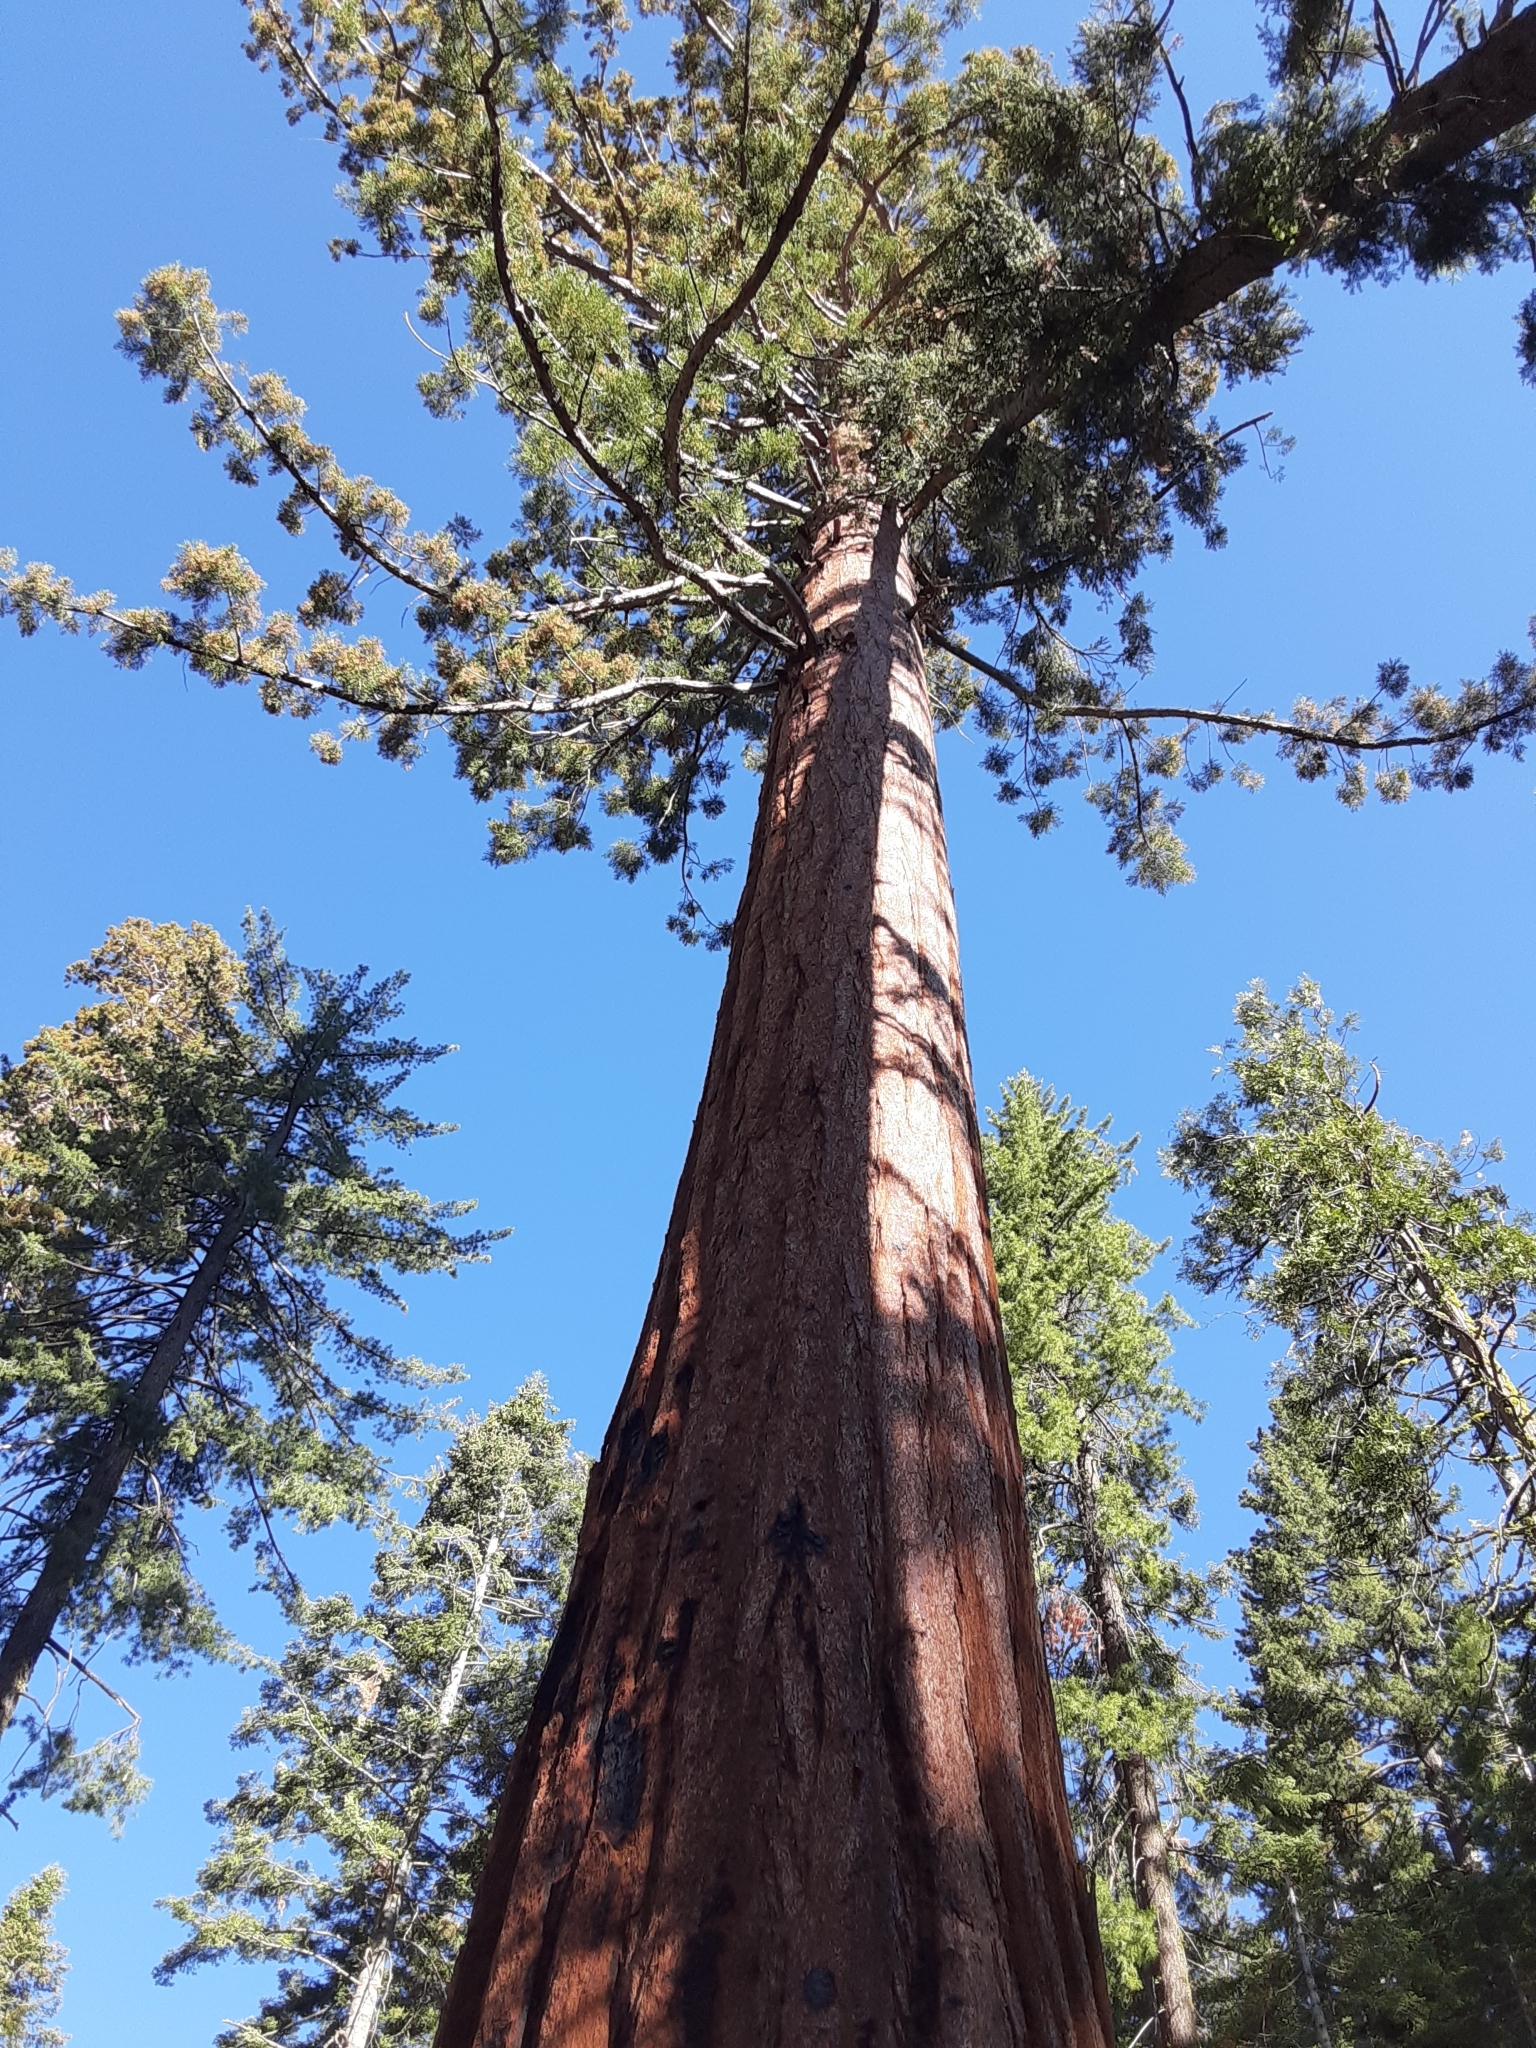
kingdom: Plantae
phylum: Tracheophyta
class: Pinopsida
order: Pinales
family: Cupressaceae
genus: Sequoiadendron
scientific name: Sequoiadendron giganteum
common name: Wellingtonia
